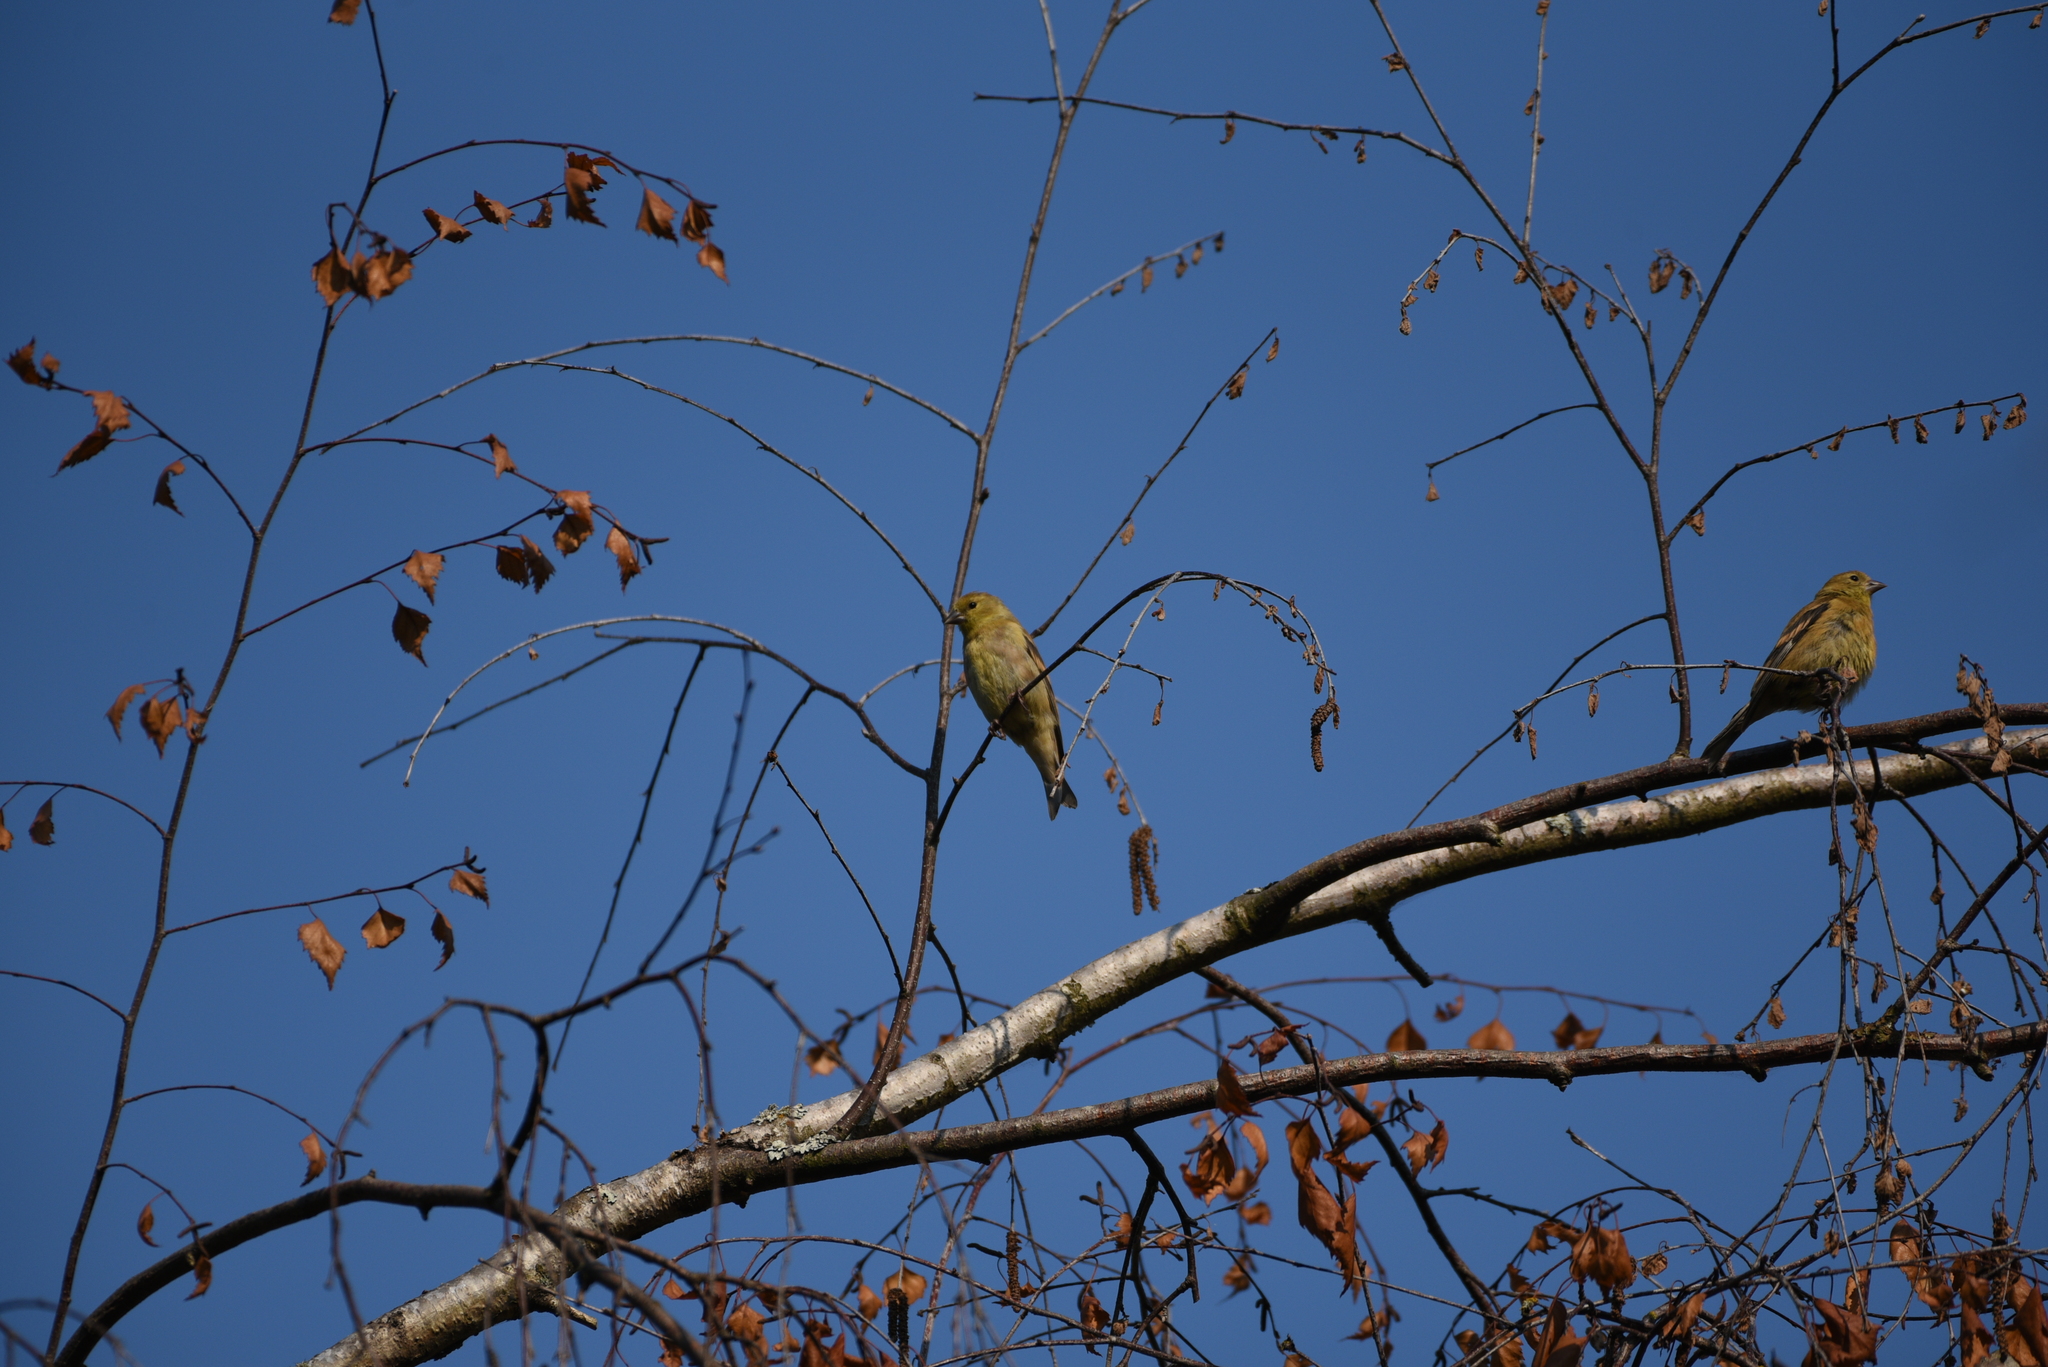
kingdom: Animalia
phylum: Chordata
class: Aves
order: Passeriformes
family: Fringillidae
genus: Spinus
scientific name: Spinus tristis
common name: American goldfinch
